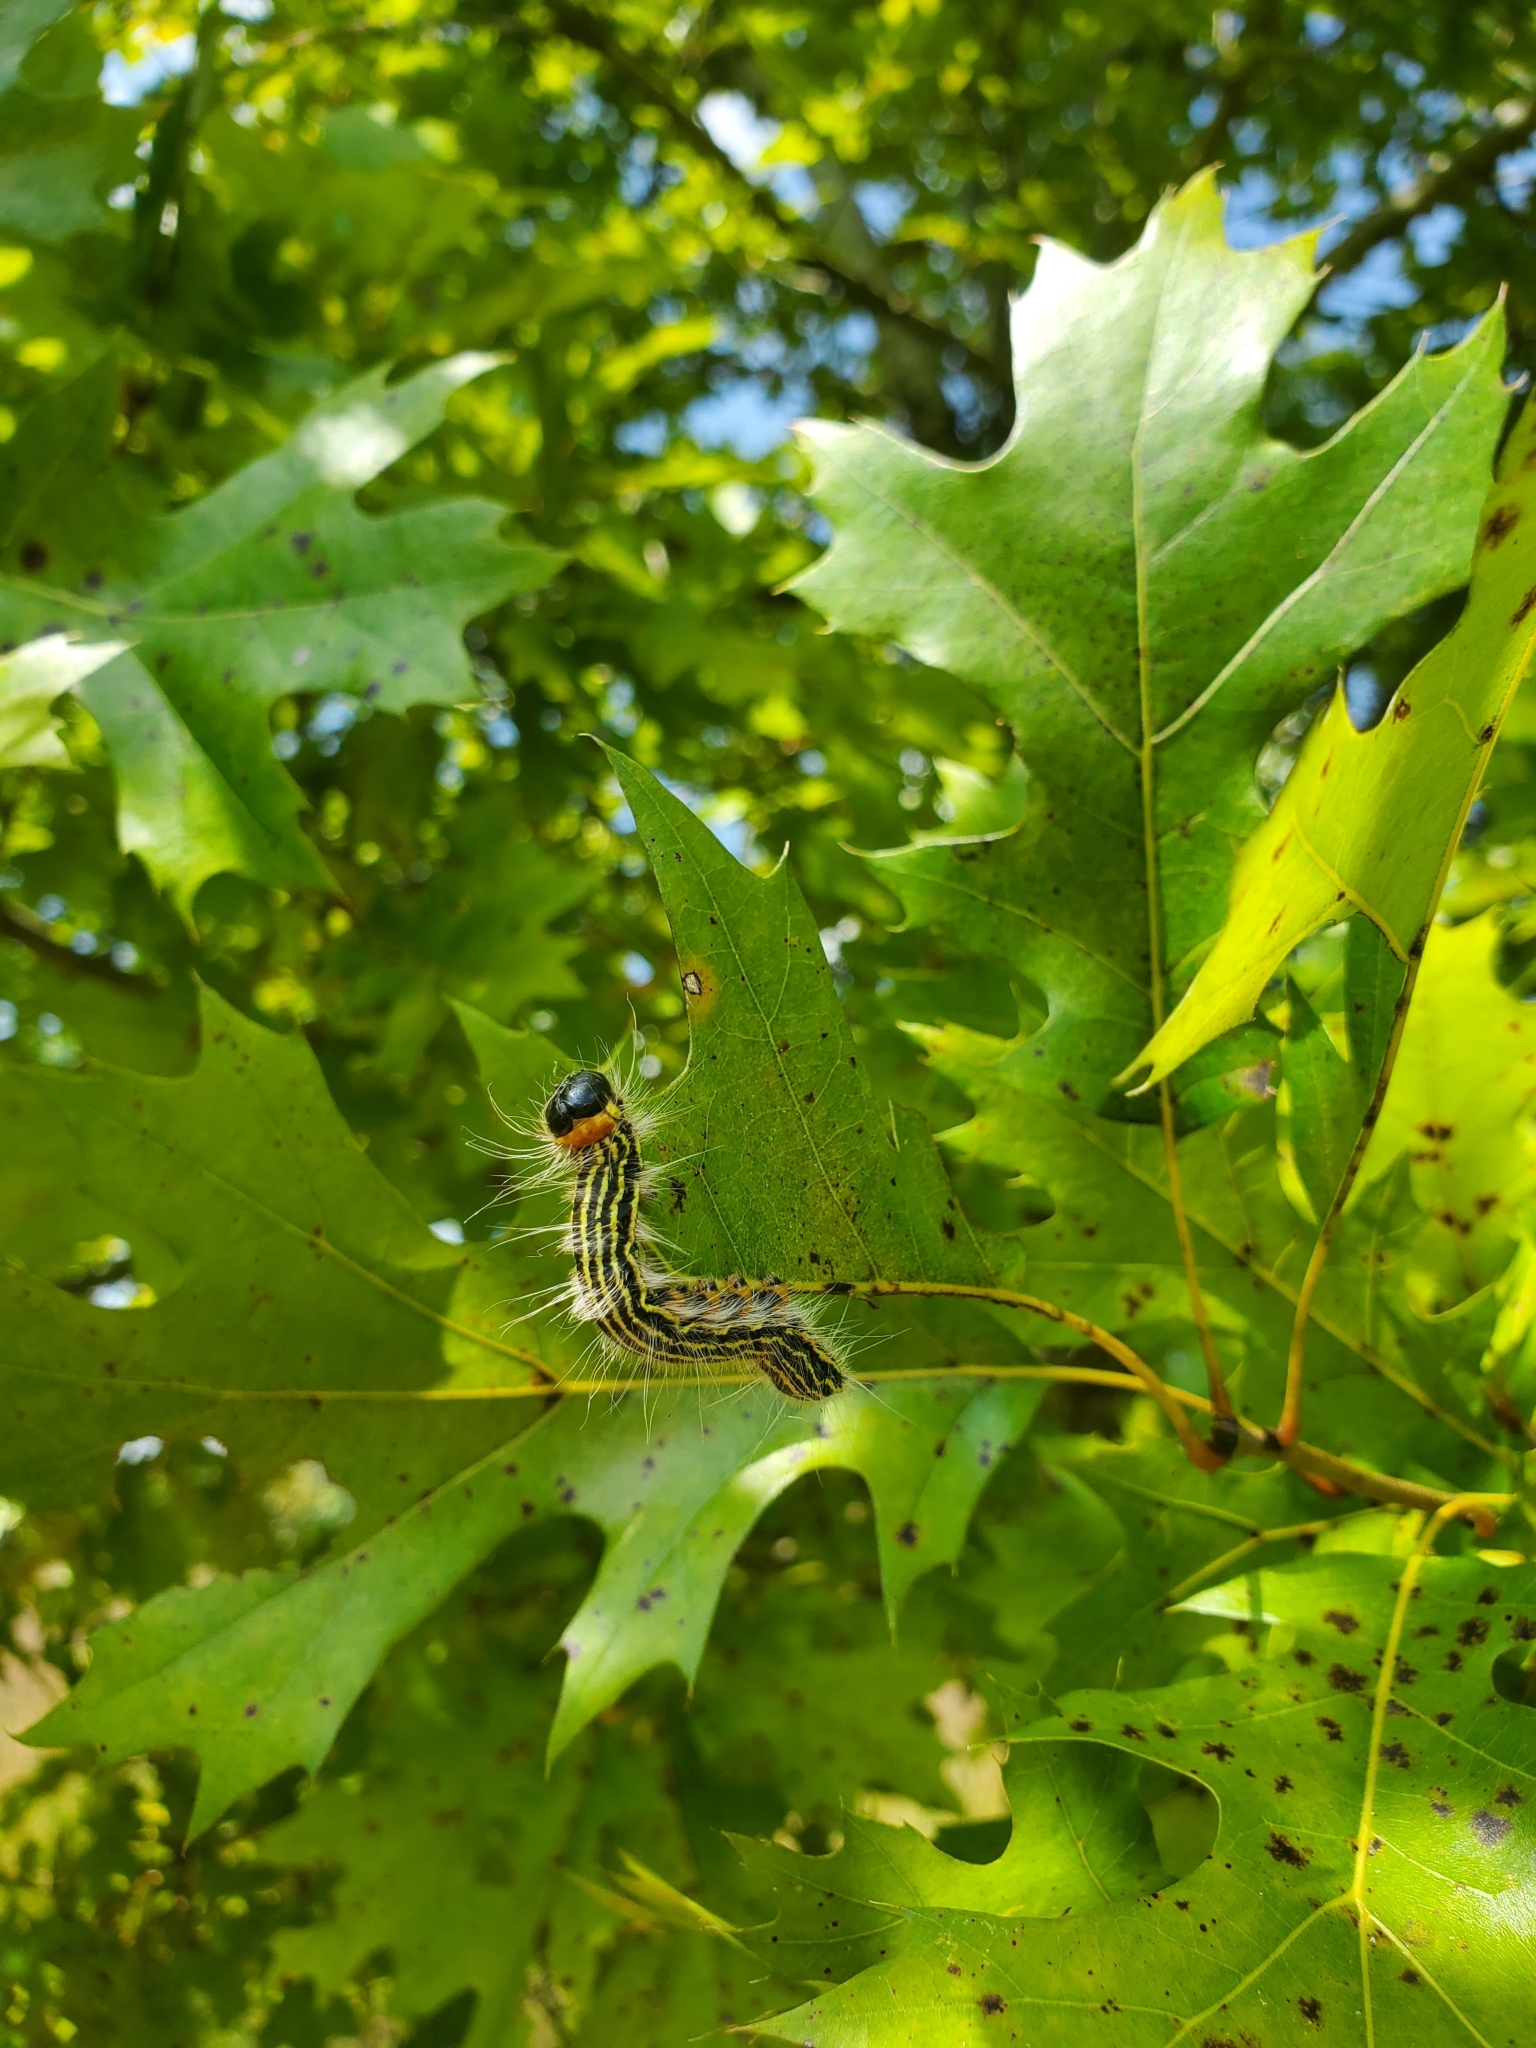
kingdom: Animalia
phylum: Arthropoda
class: Insecta
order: Lepidoptera
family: Notodontidae
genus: Datana
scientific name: Datana ministra
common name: Yellow-necked caterpillar moth
